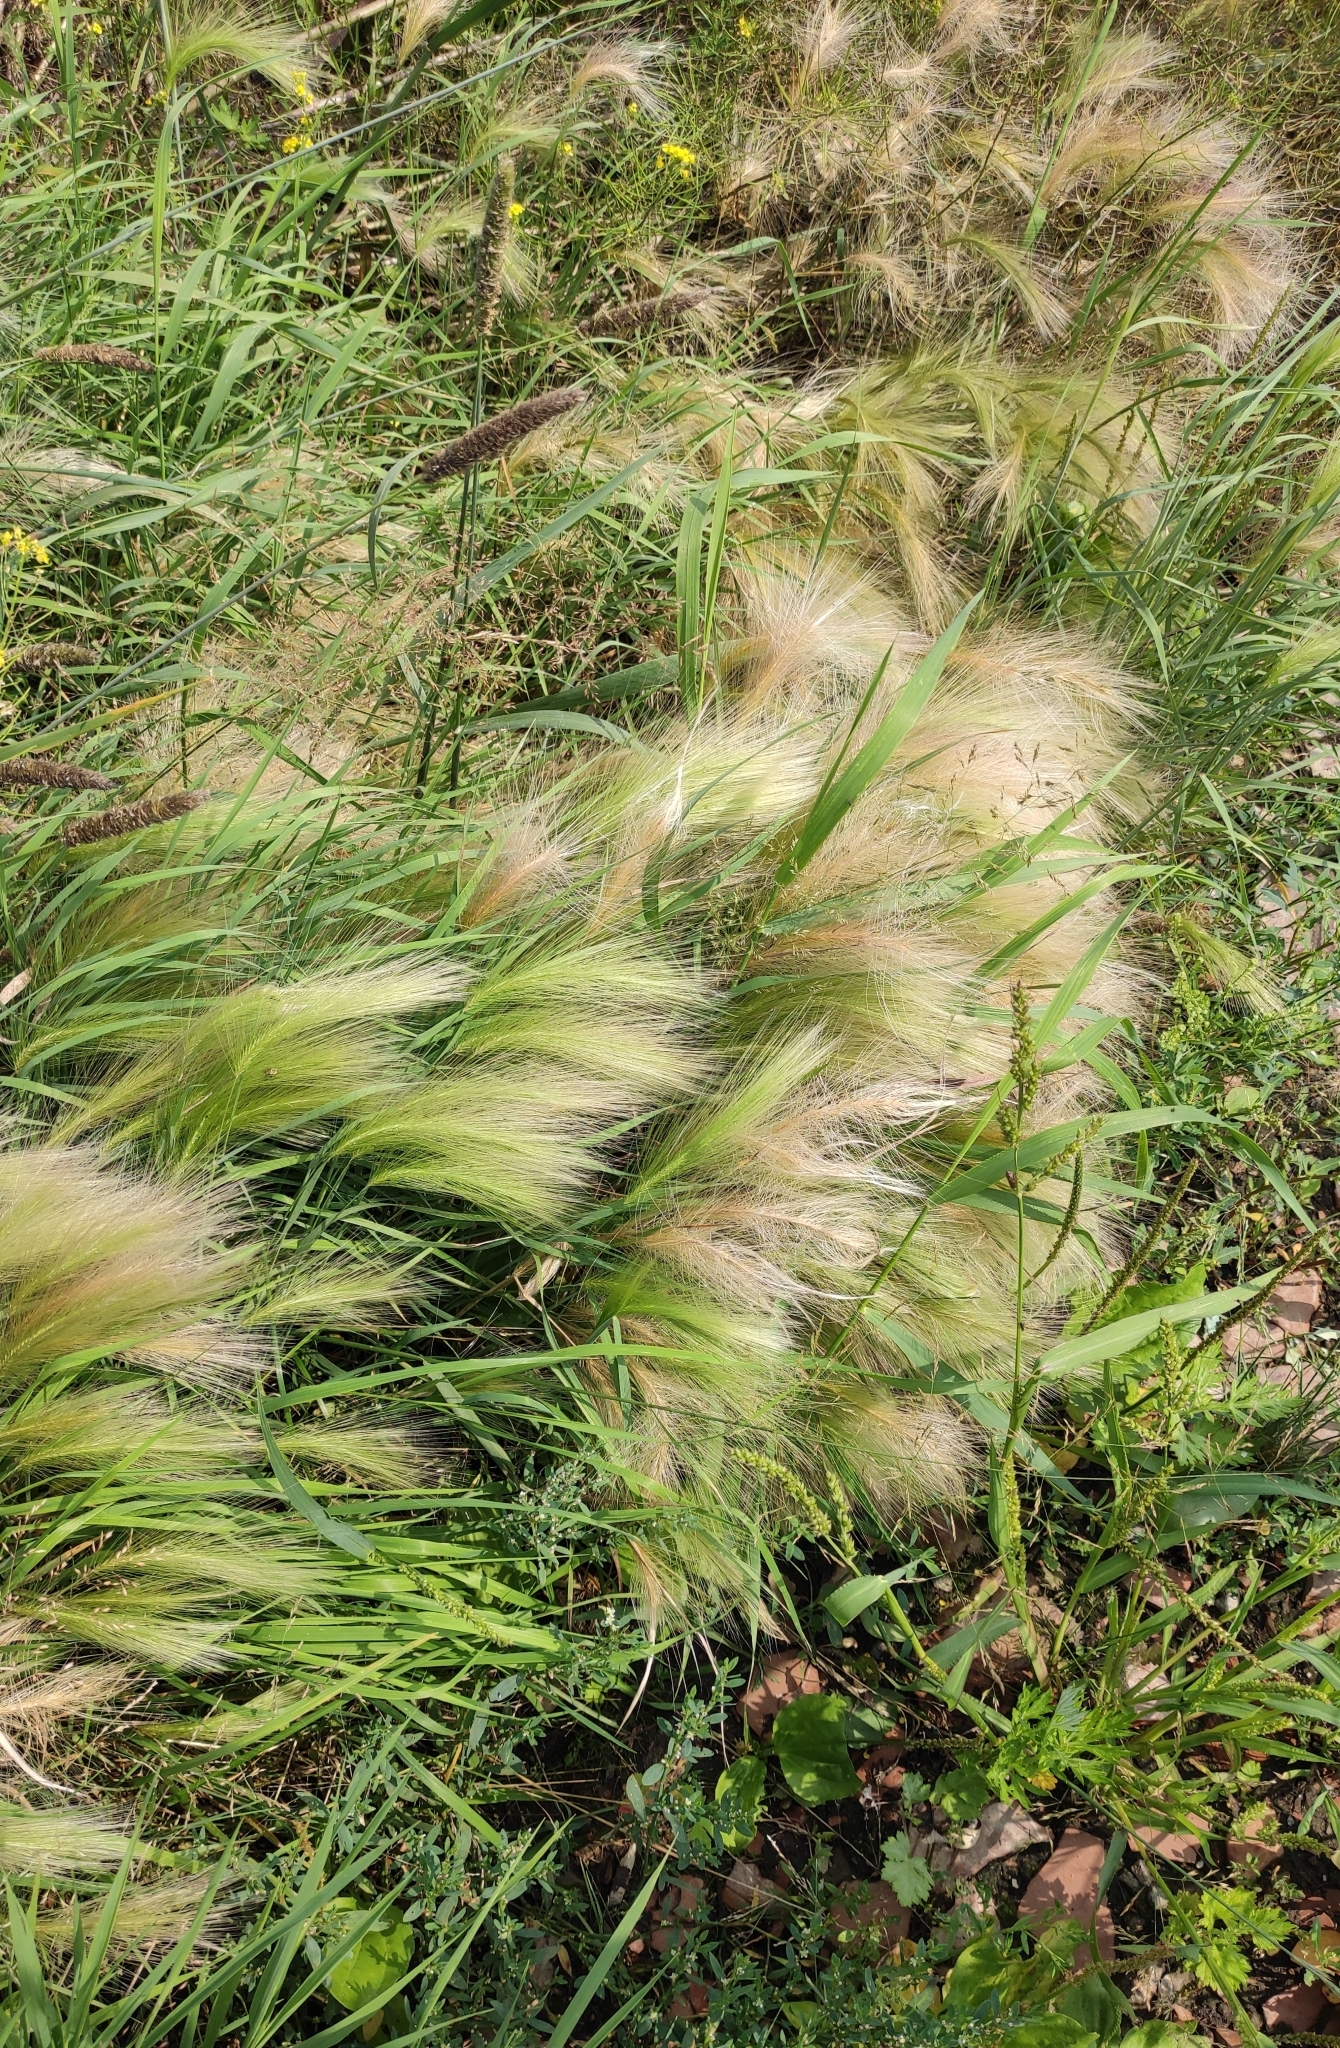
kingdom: Plantae
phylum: Tracheophyta
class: Liliopsida
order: Poales
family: Poaceae
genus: Hordeum
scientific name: Hordeum jubatum
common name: Foxtail barley
